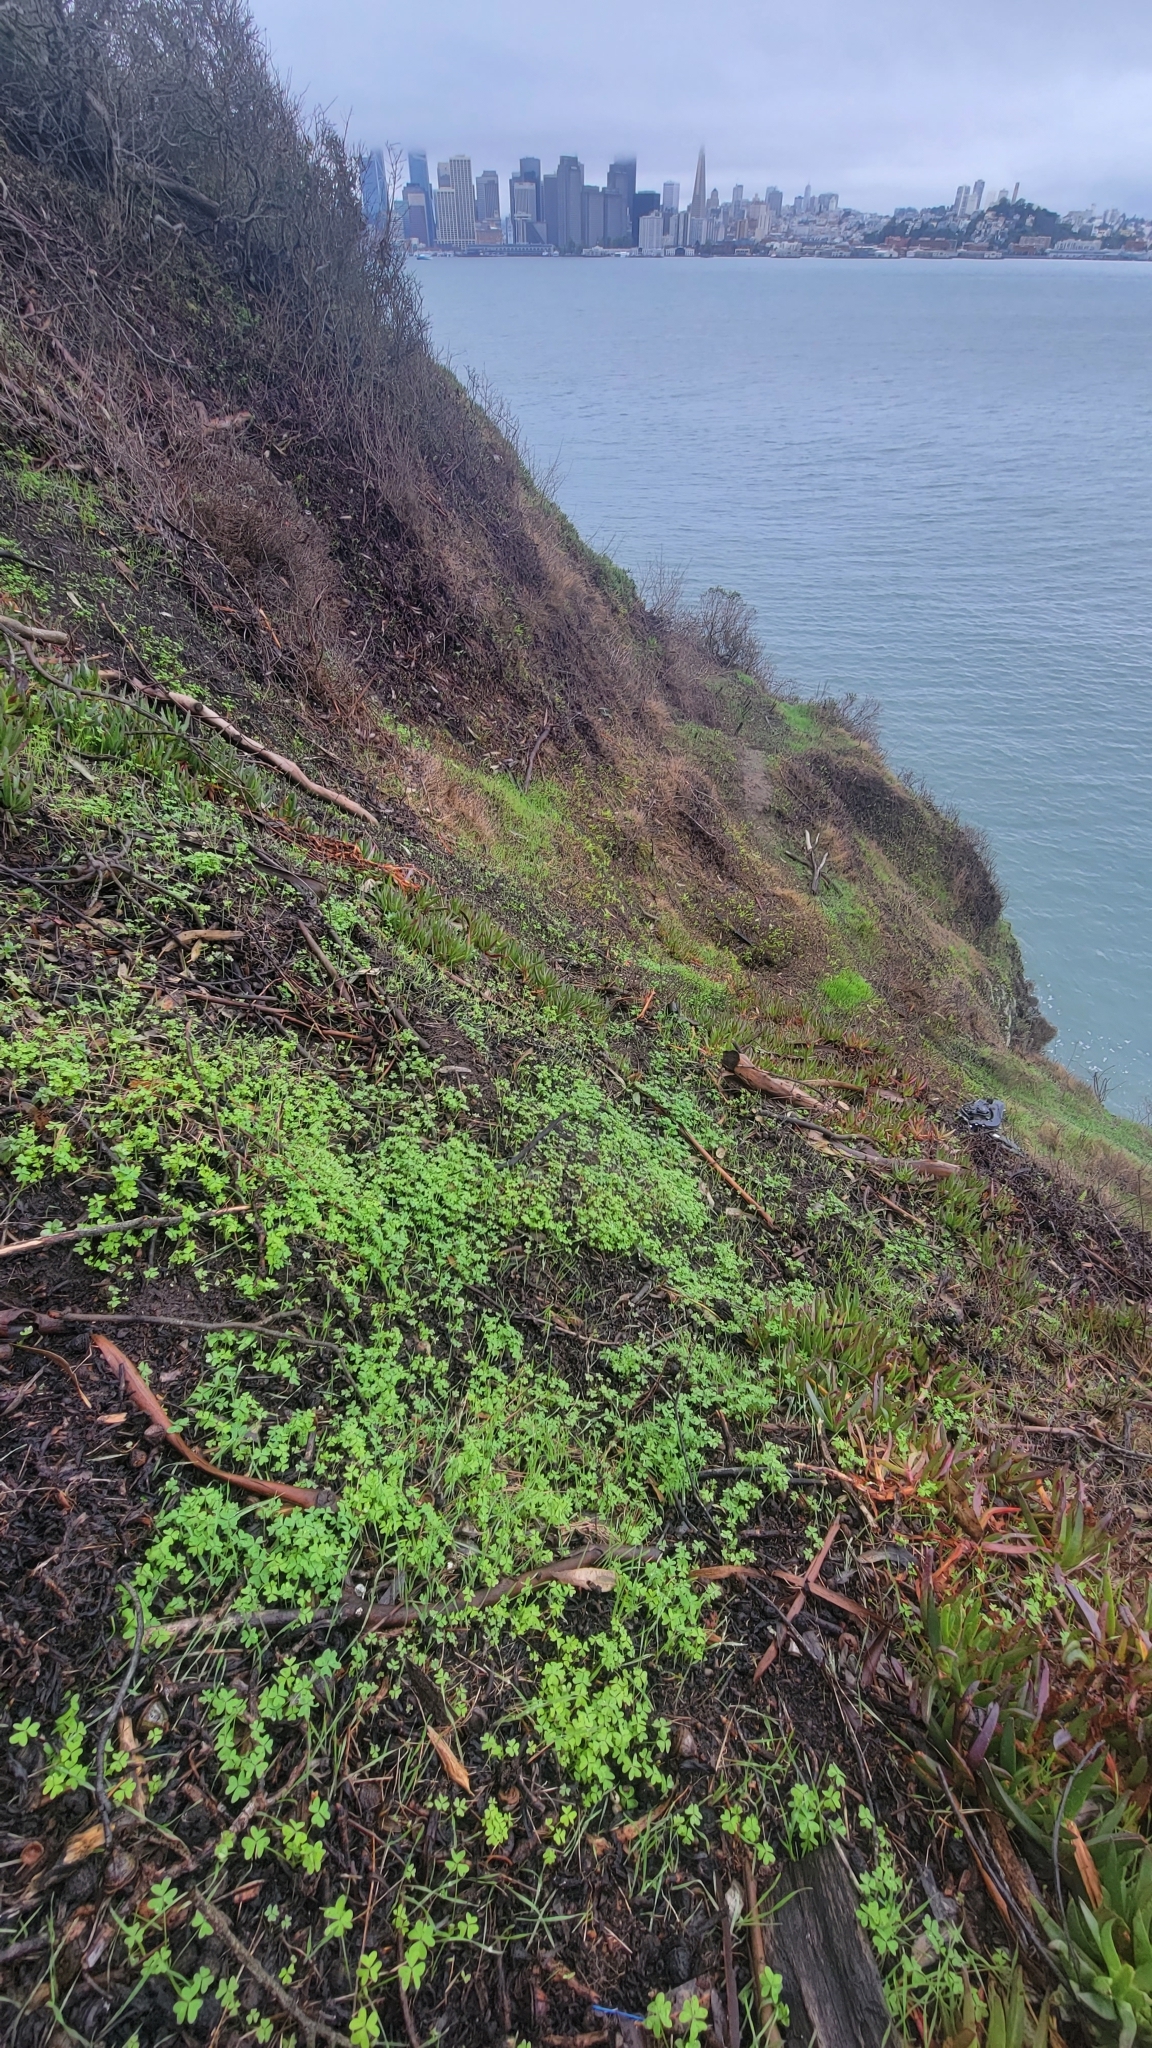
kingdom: Plantae
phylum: Tracheophyta
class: Magnoliopsida
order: Oxalidales
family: Oxalidaceae
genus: Oxalis
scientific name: Oxalis pes-caprae
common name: Bermuda-buttercup
